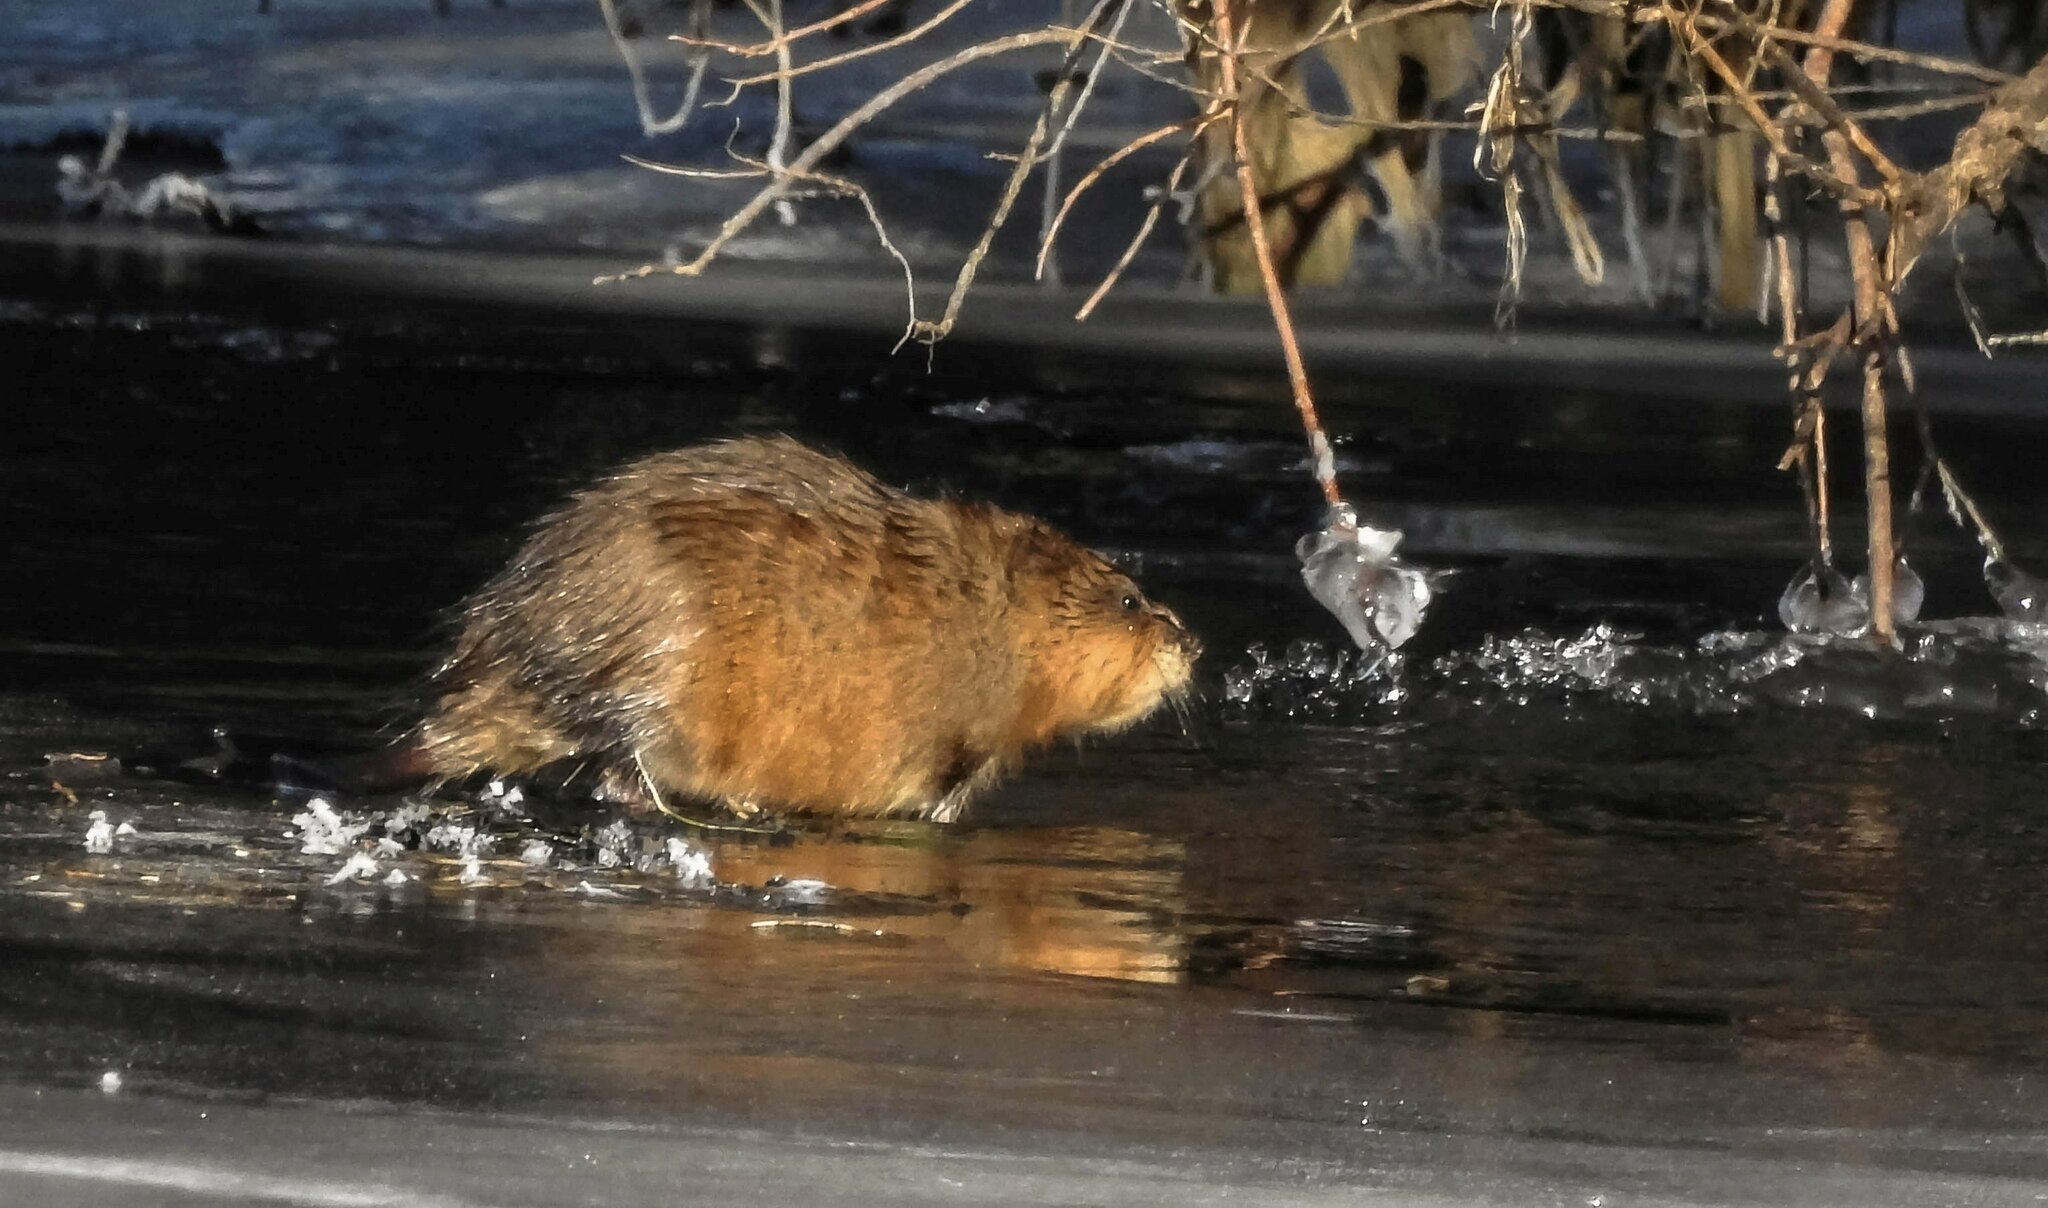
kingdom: Animalia
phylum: Chordata
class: Mammalia
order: Rodentia
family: Cricetidae
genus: Ondatra
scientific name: Ondatra zibethicus
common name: Muskrat
